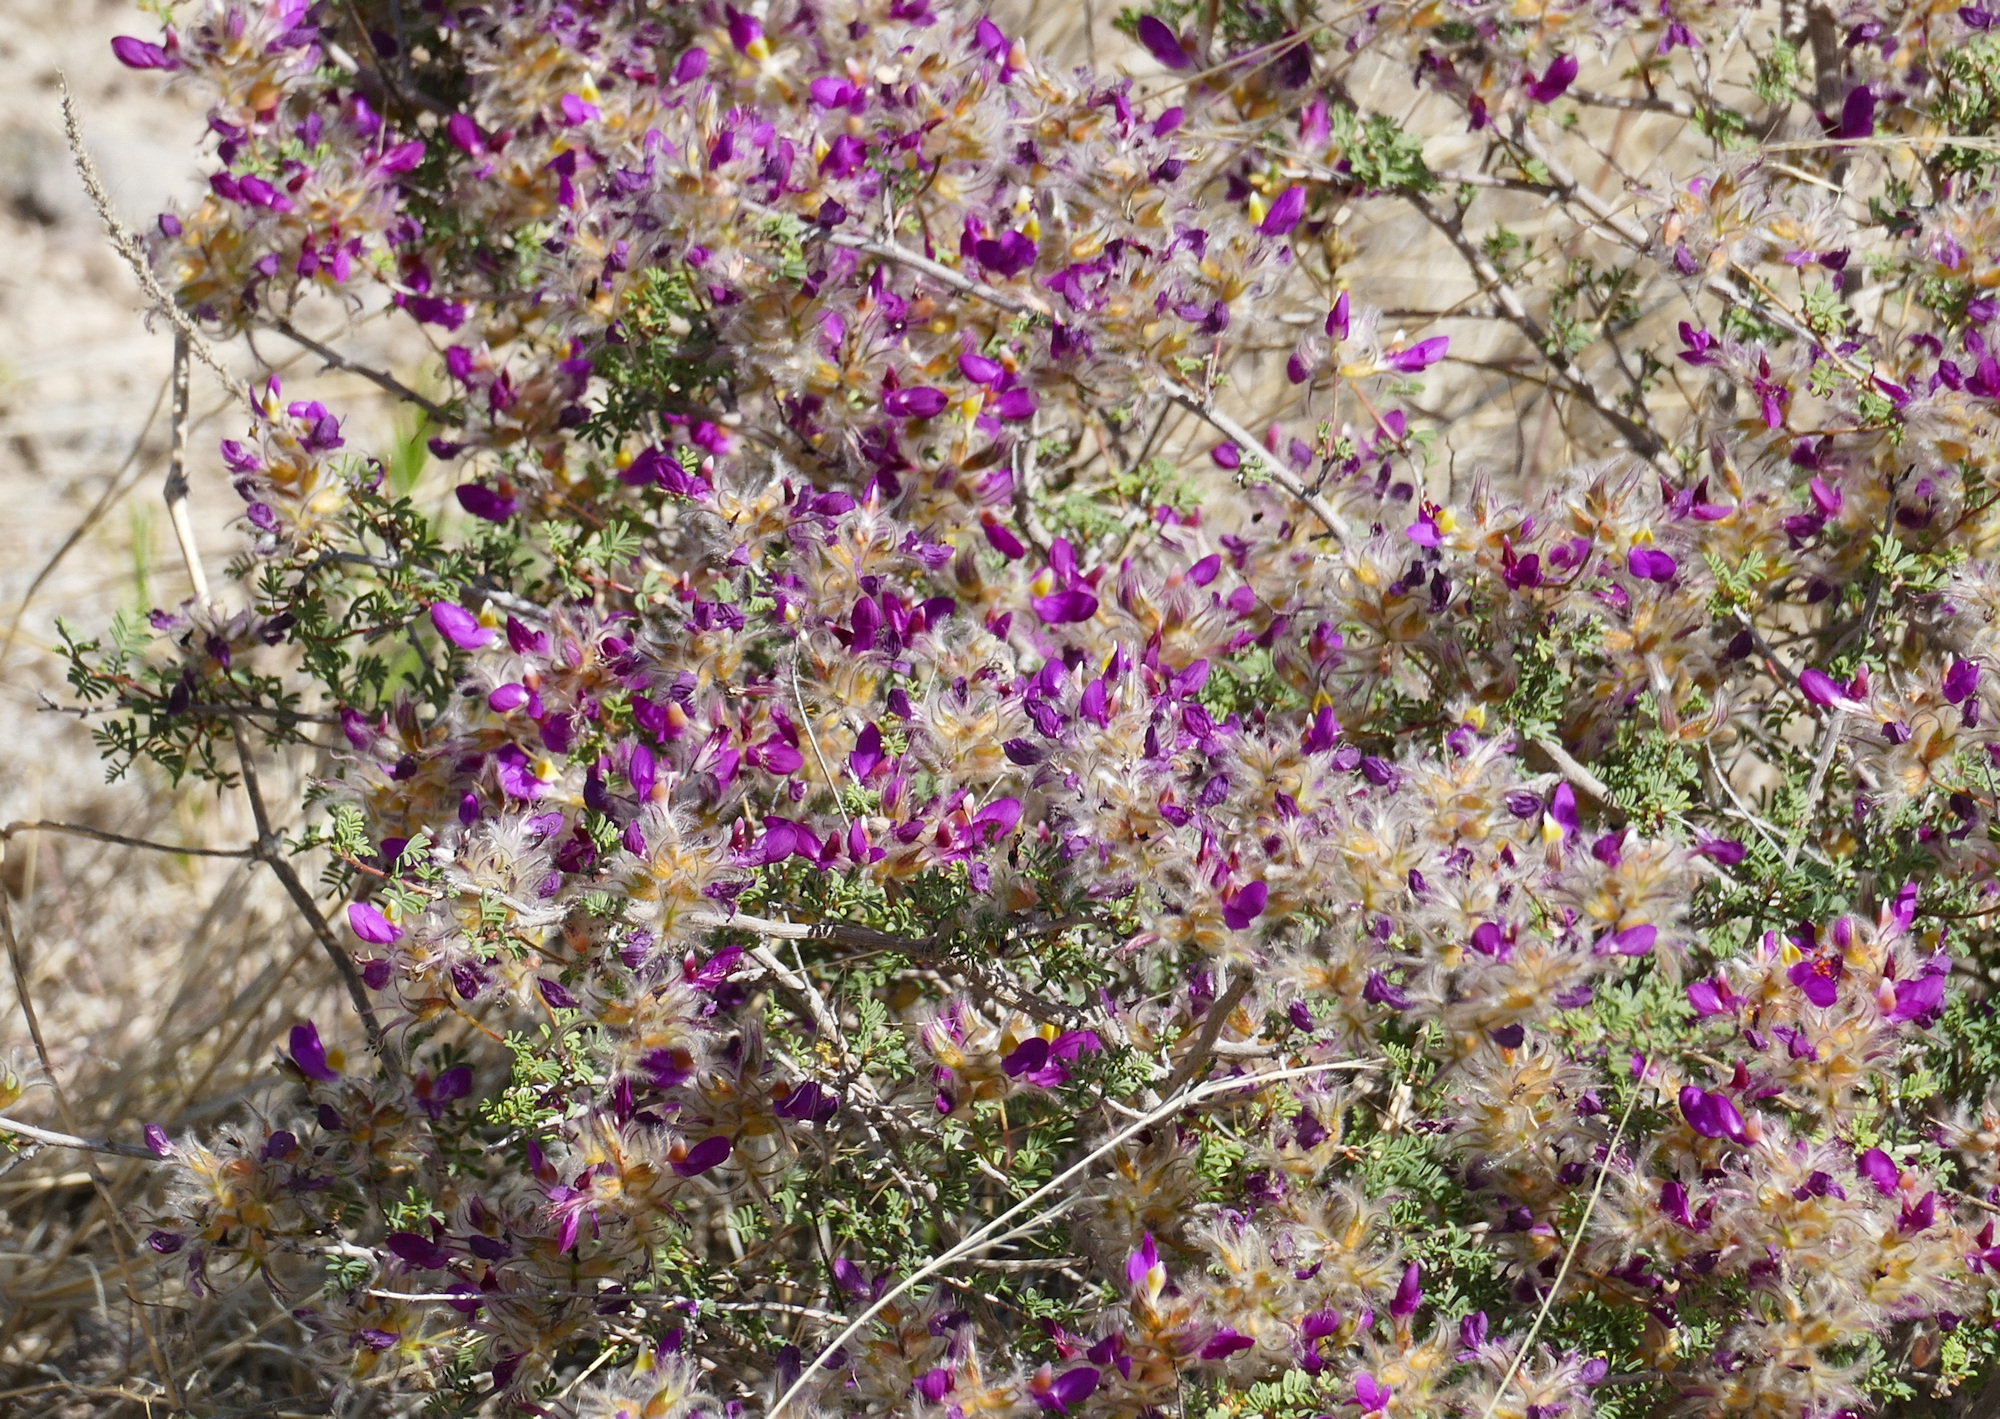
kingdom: Plantae
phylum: Tracheophyta
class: Magnoliopsida
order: Fabales
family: Fabaceae
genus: Dalea
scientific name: Dalea formosa
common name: Feather-plume dalea
